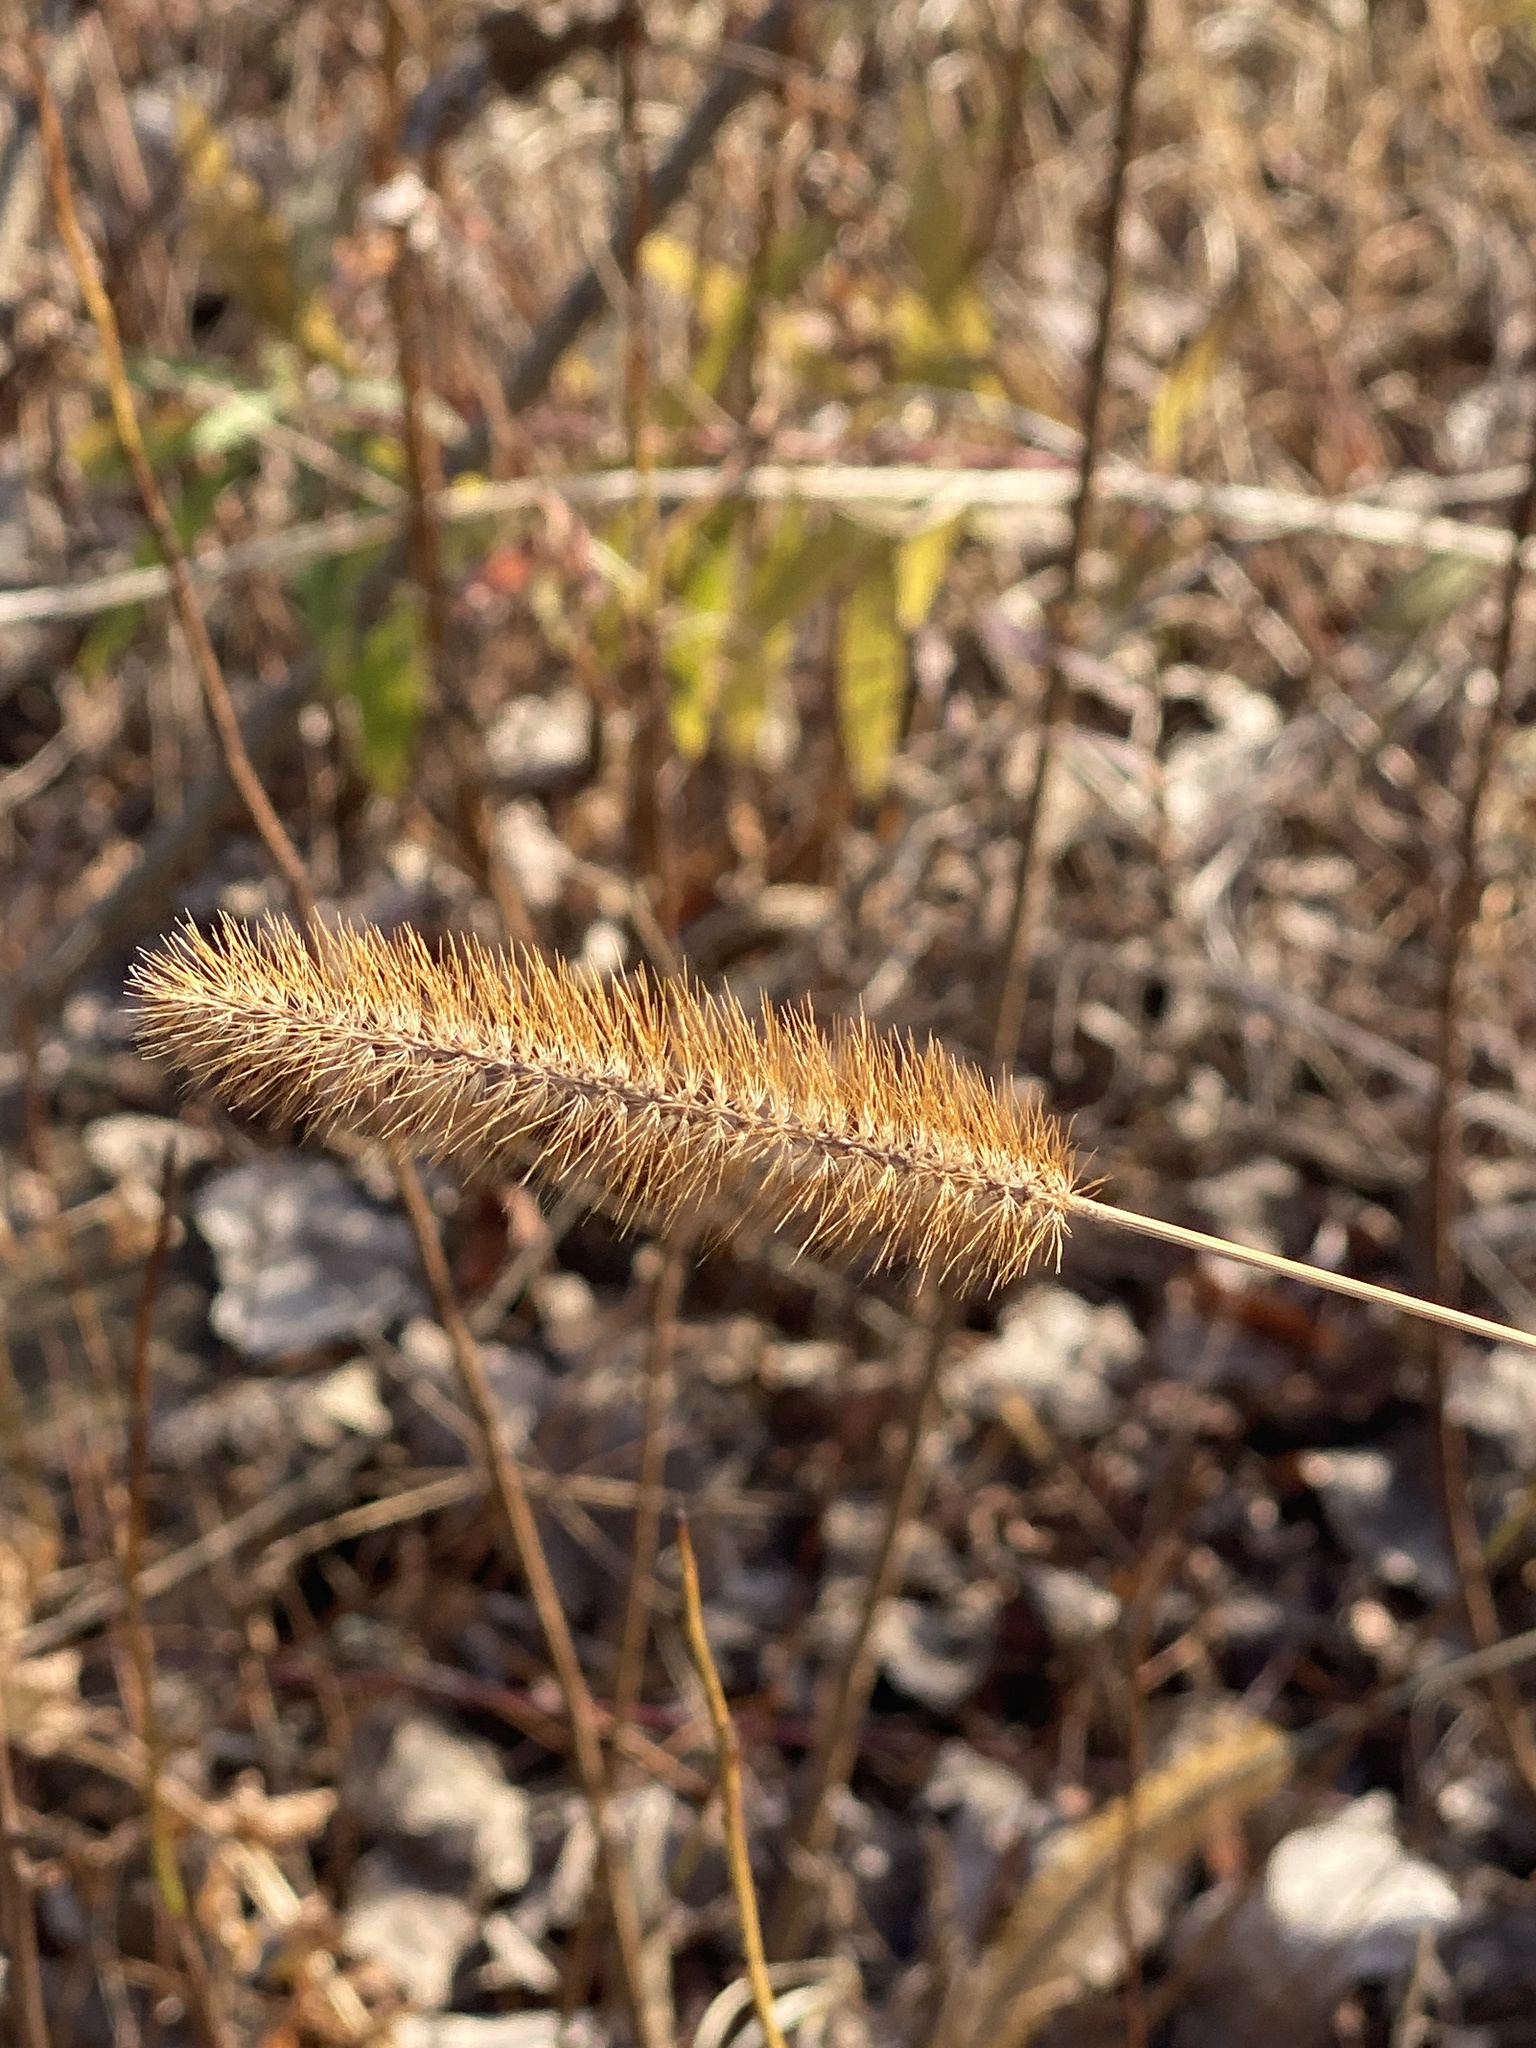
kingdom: Plantae
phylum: Tracheophyta
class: Liliopsida
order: Poales
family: Poaceae
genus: Setaria
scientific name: Setaria pumila
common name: Yellow bristle-grass
